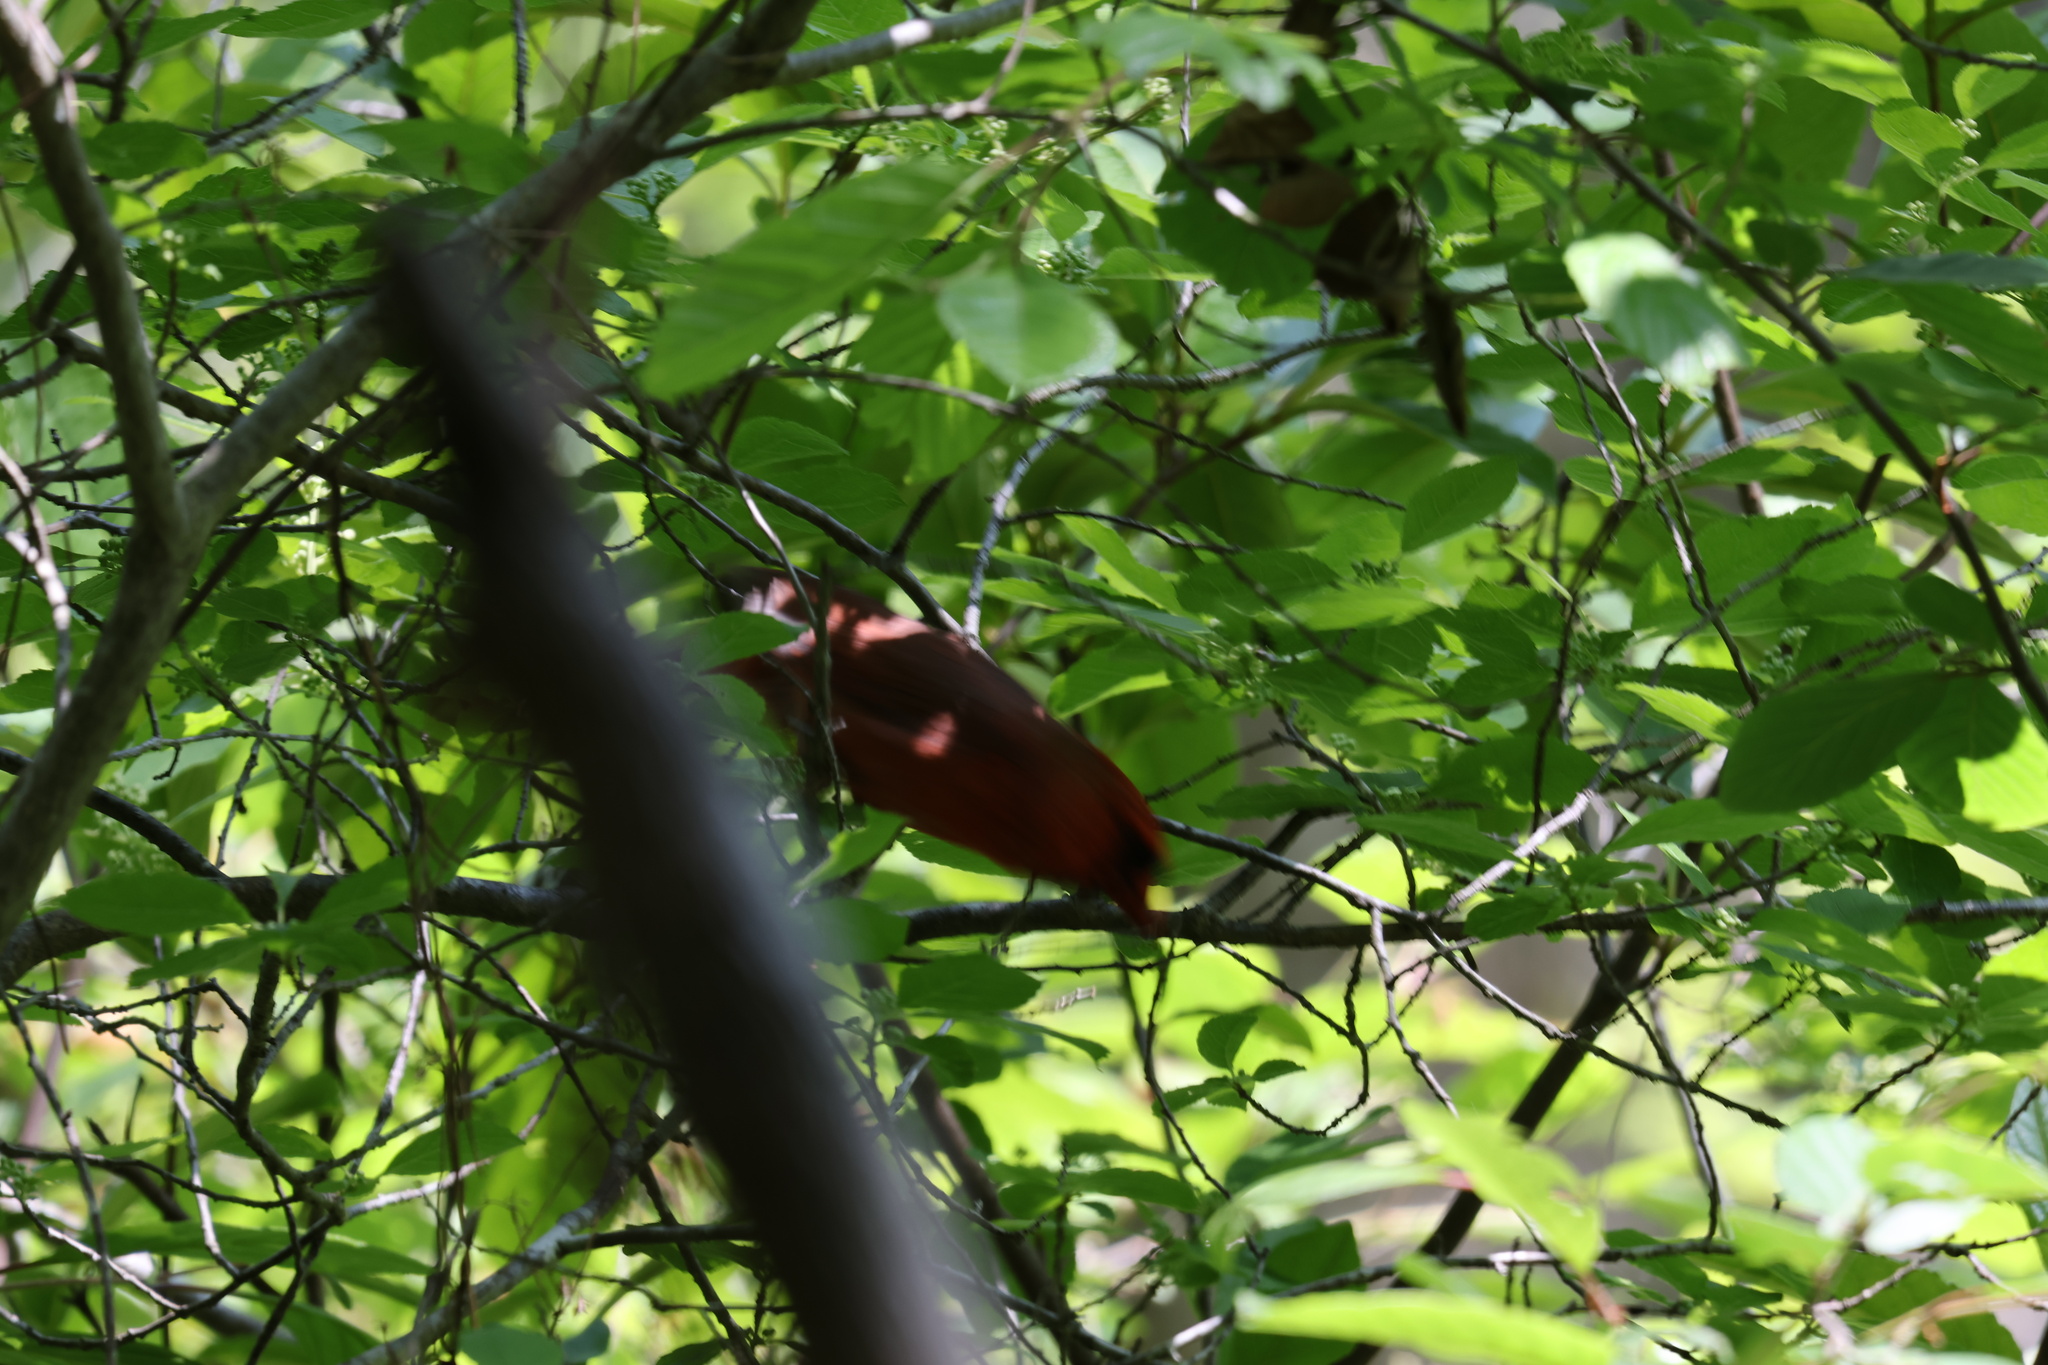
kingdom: Animalia
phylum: Chordata
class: Aves
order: Passeriformes
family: Cardinalidae
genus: Cardinalis
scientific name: Cardinalis cardinalis
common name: Northern cardinal
